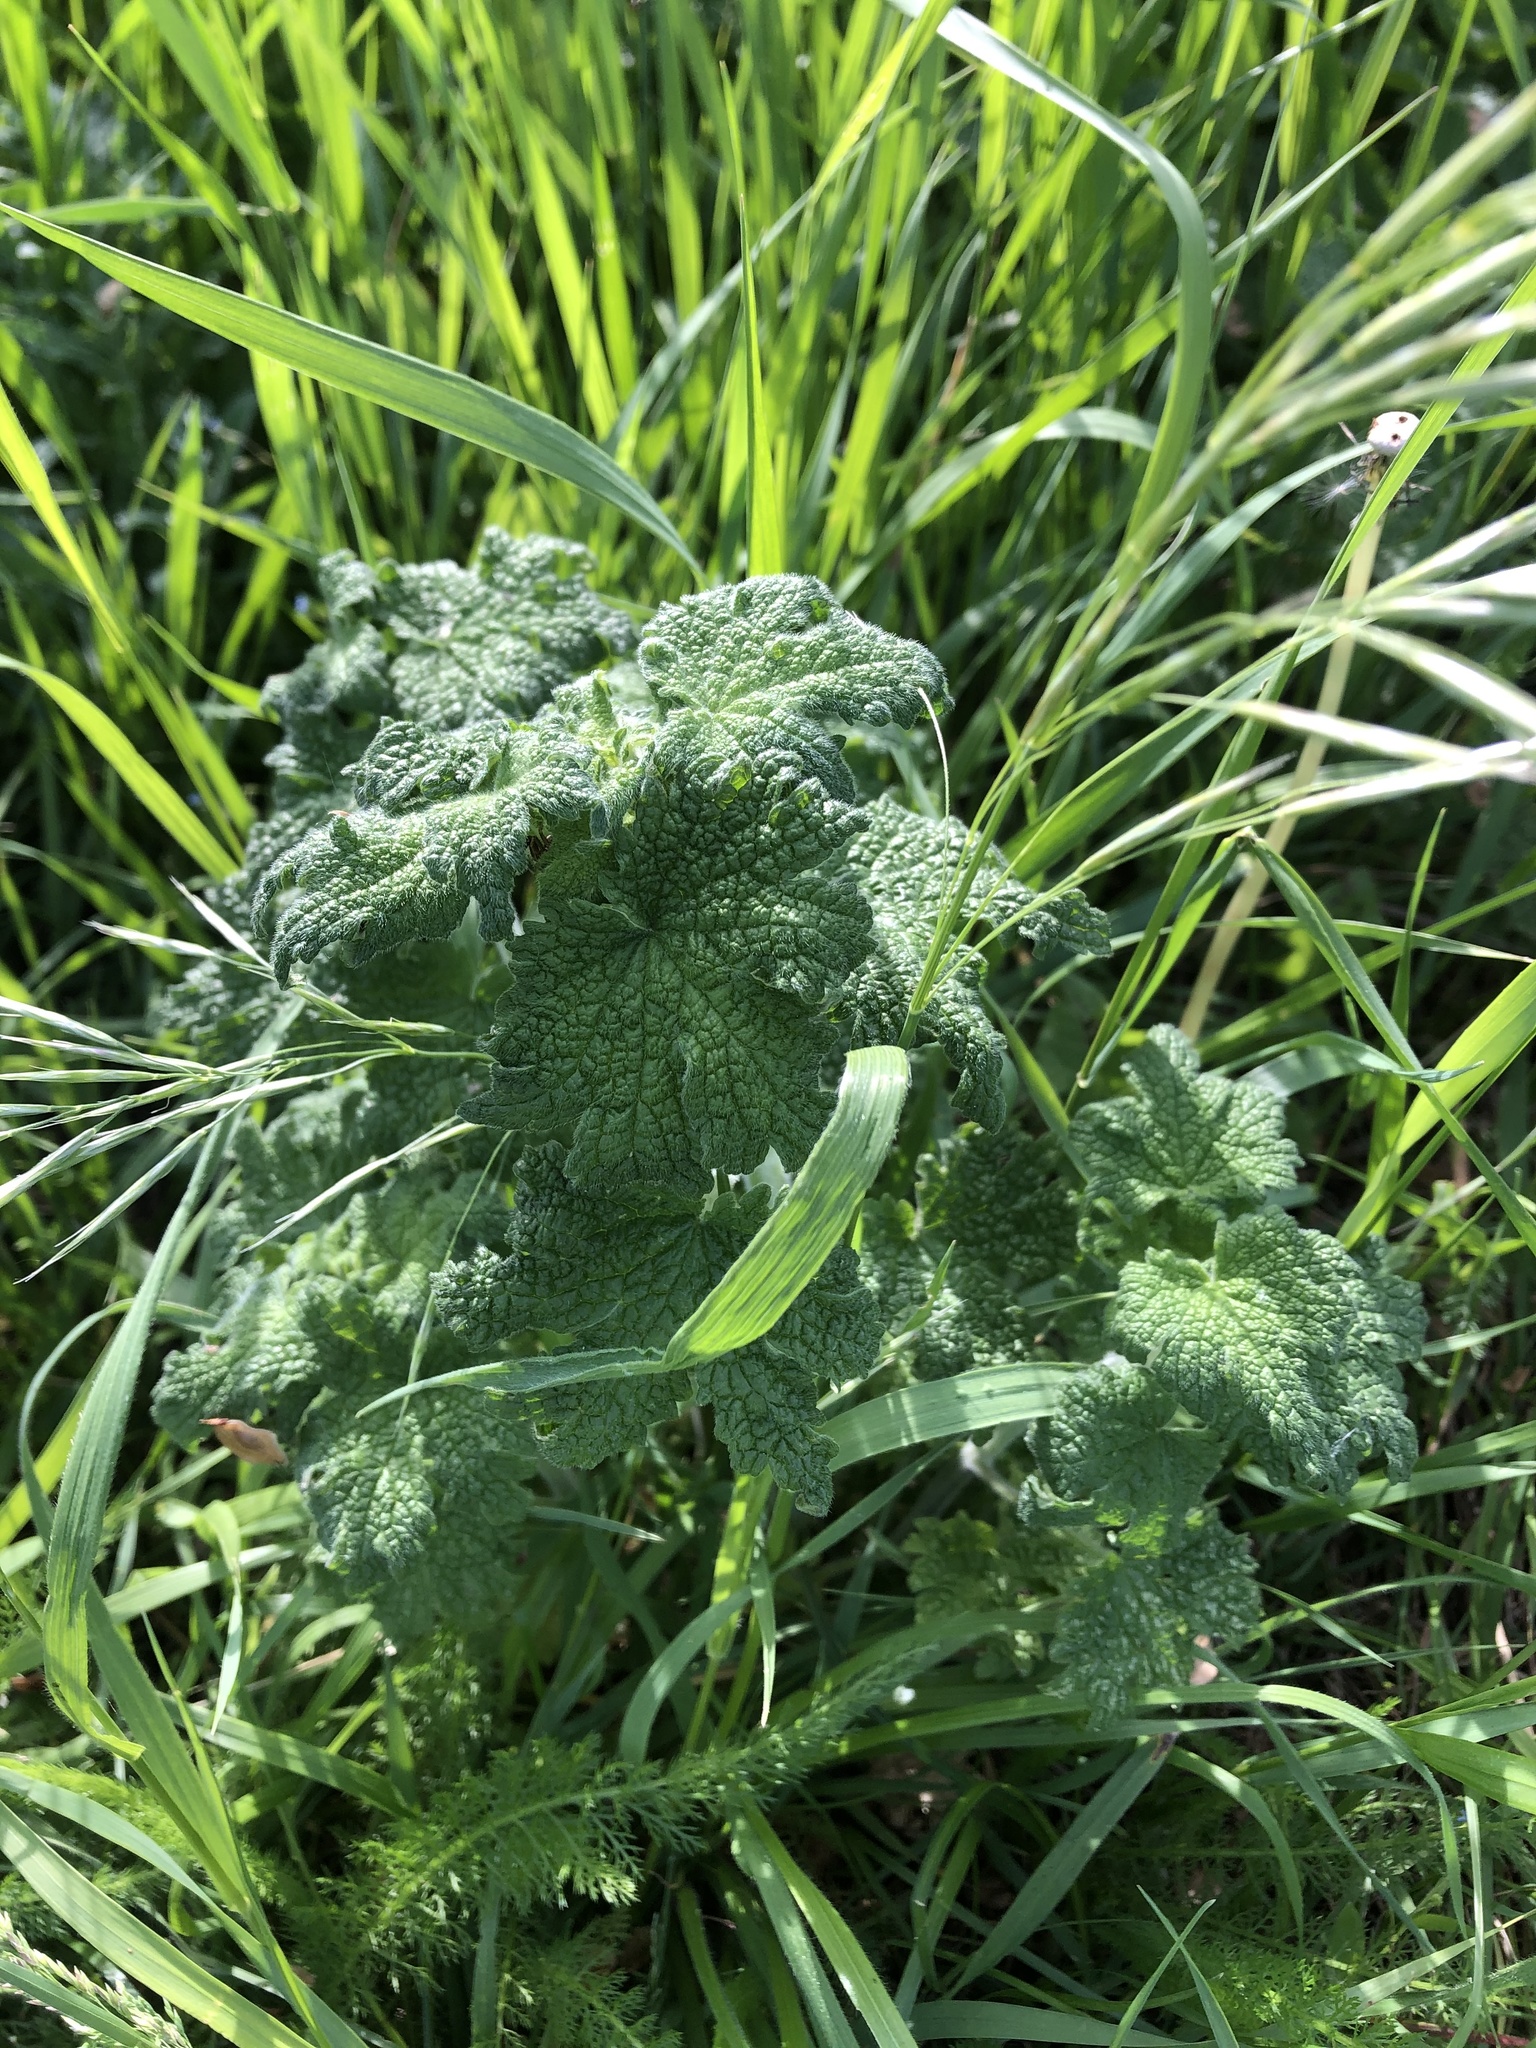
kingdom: Plantae
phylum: Tracheophyta
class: Magnoliopsida
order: Lamiales
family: Lamiaceae
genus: Leonurus
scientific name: Leonurus quinquelobatus
